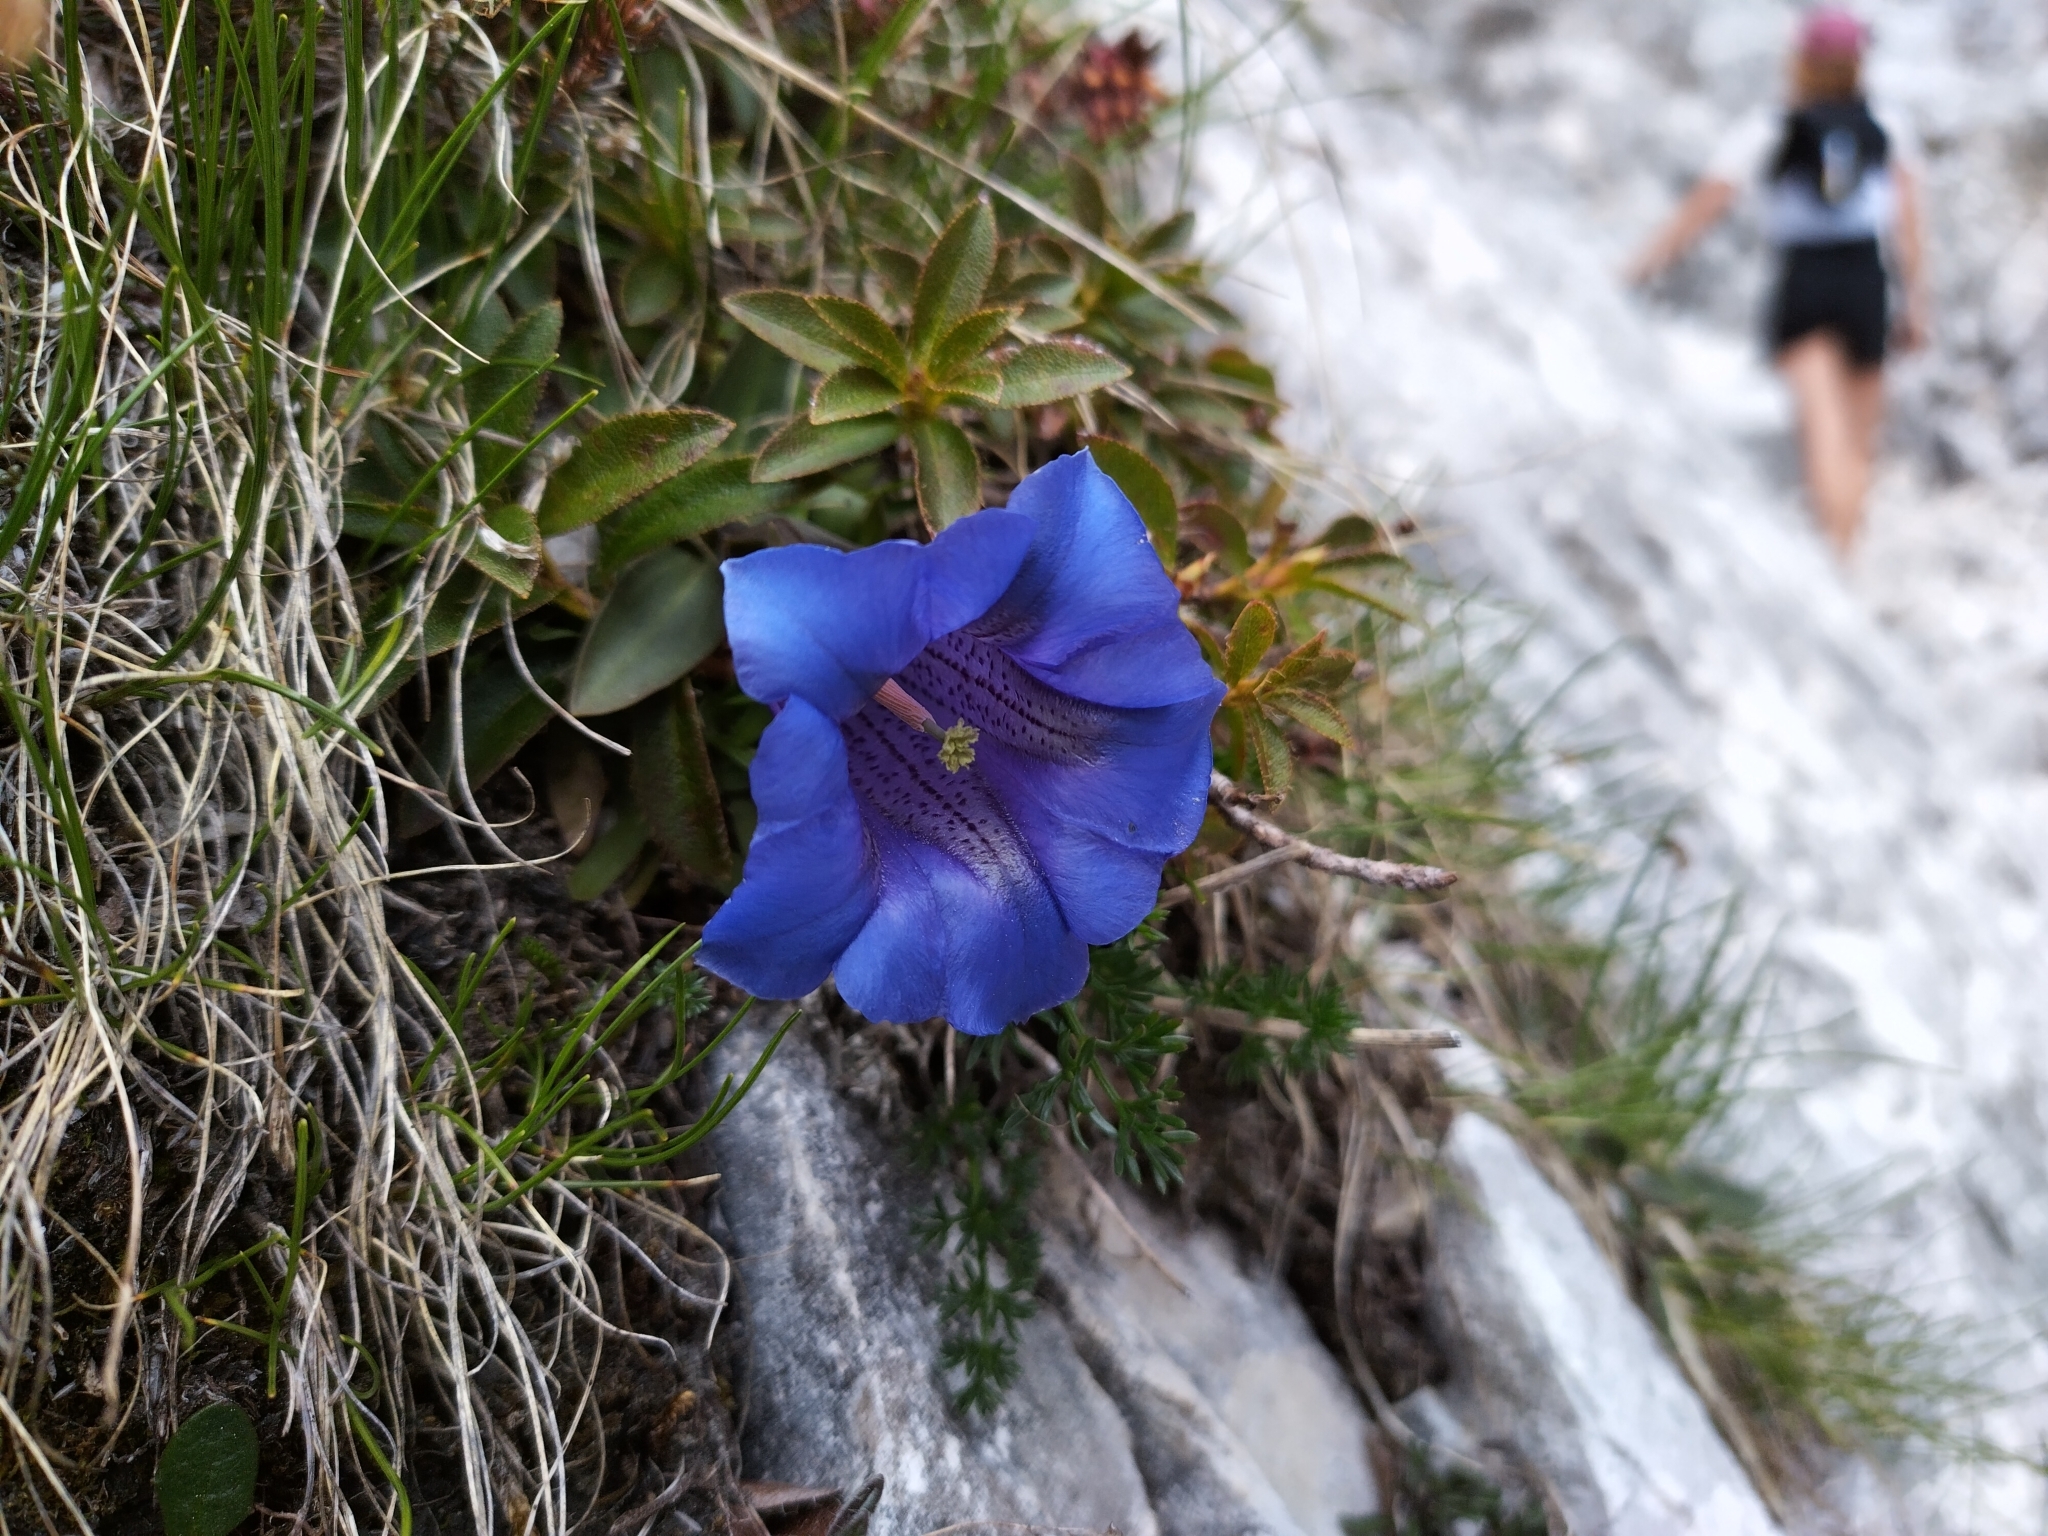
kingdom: Plantae
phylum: Tracheophyta
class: Magnoliopsida
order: Gentianales
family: Gentianaceae
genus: Gentiana
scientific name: Gentiana clusii
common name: Trumpet gentian
